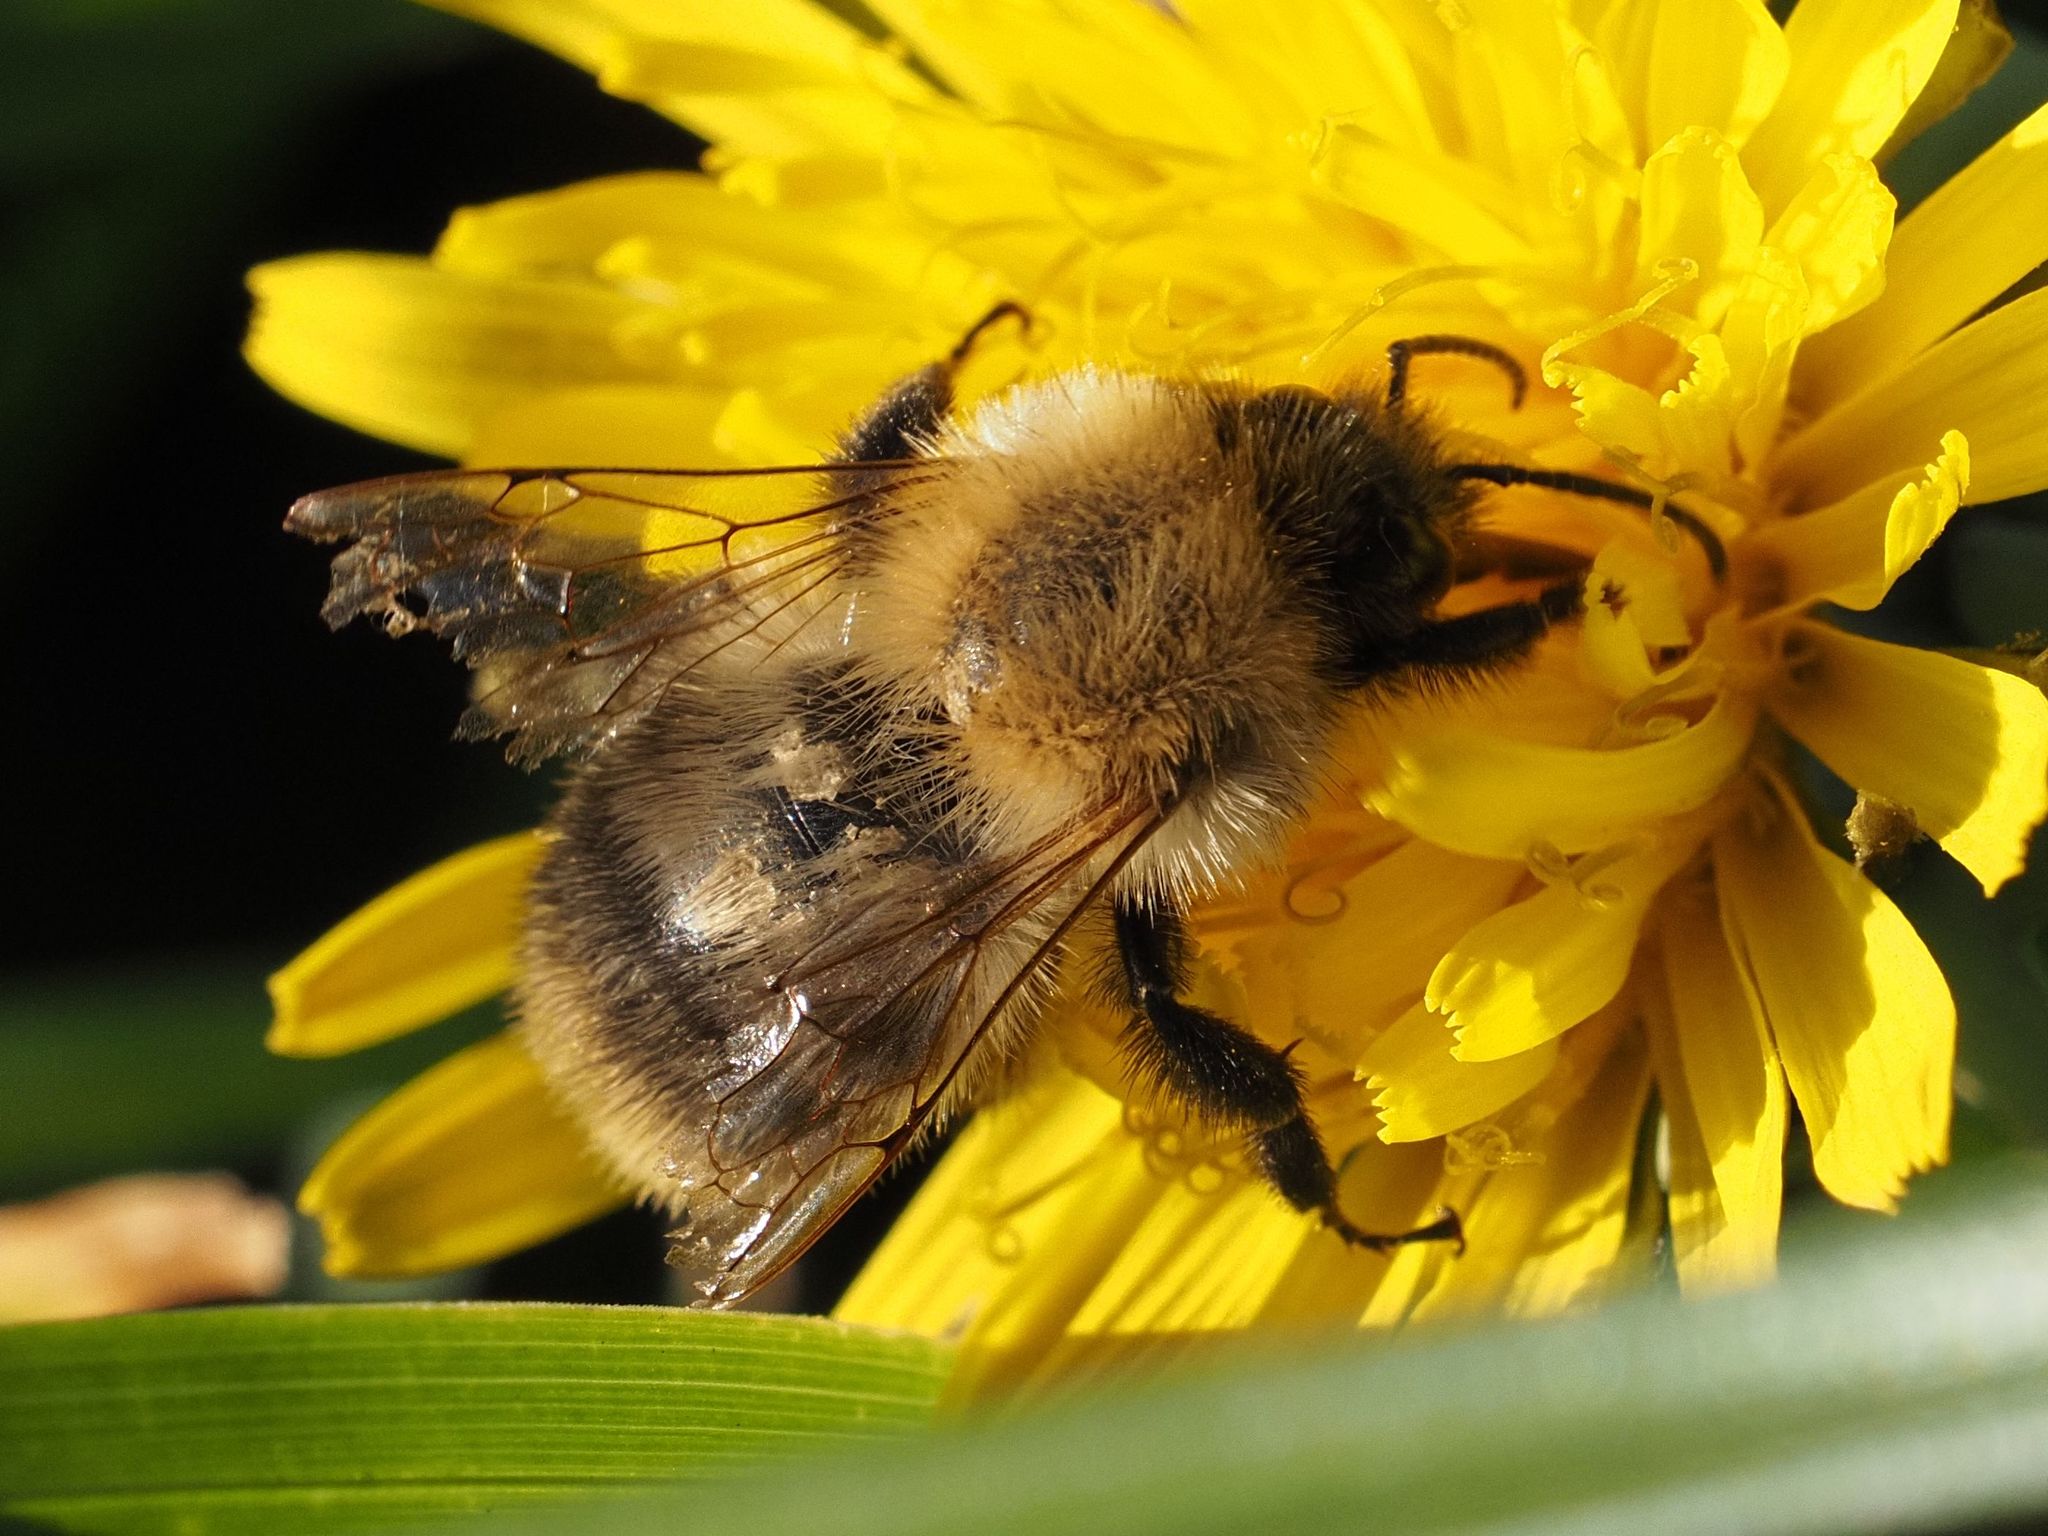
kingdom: Animalia
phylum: Arthropoda
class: Insecta
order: Hymenoptera
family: Apidae
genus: Bombus
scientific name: Bombus pascuorum
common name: Common carder bee
